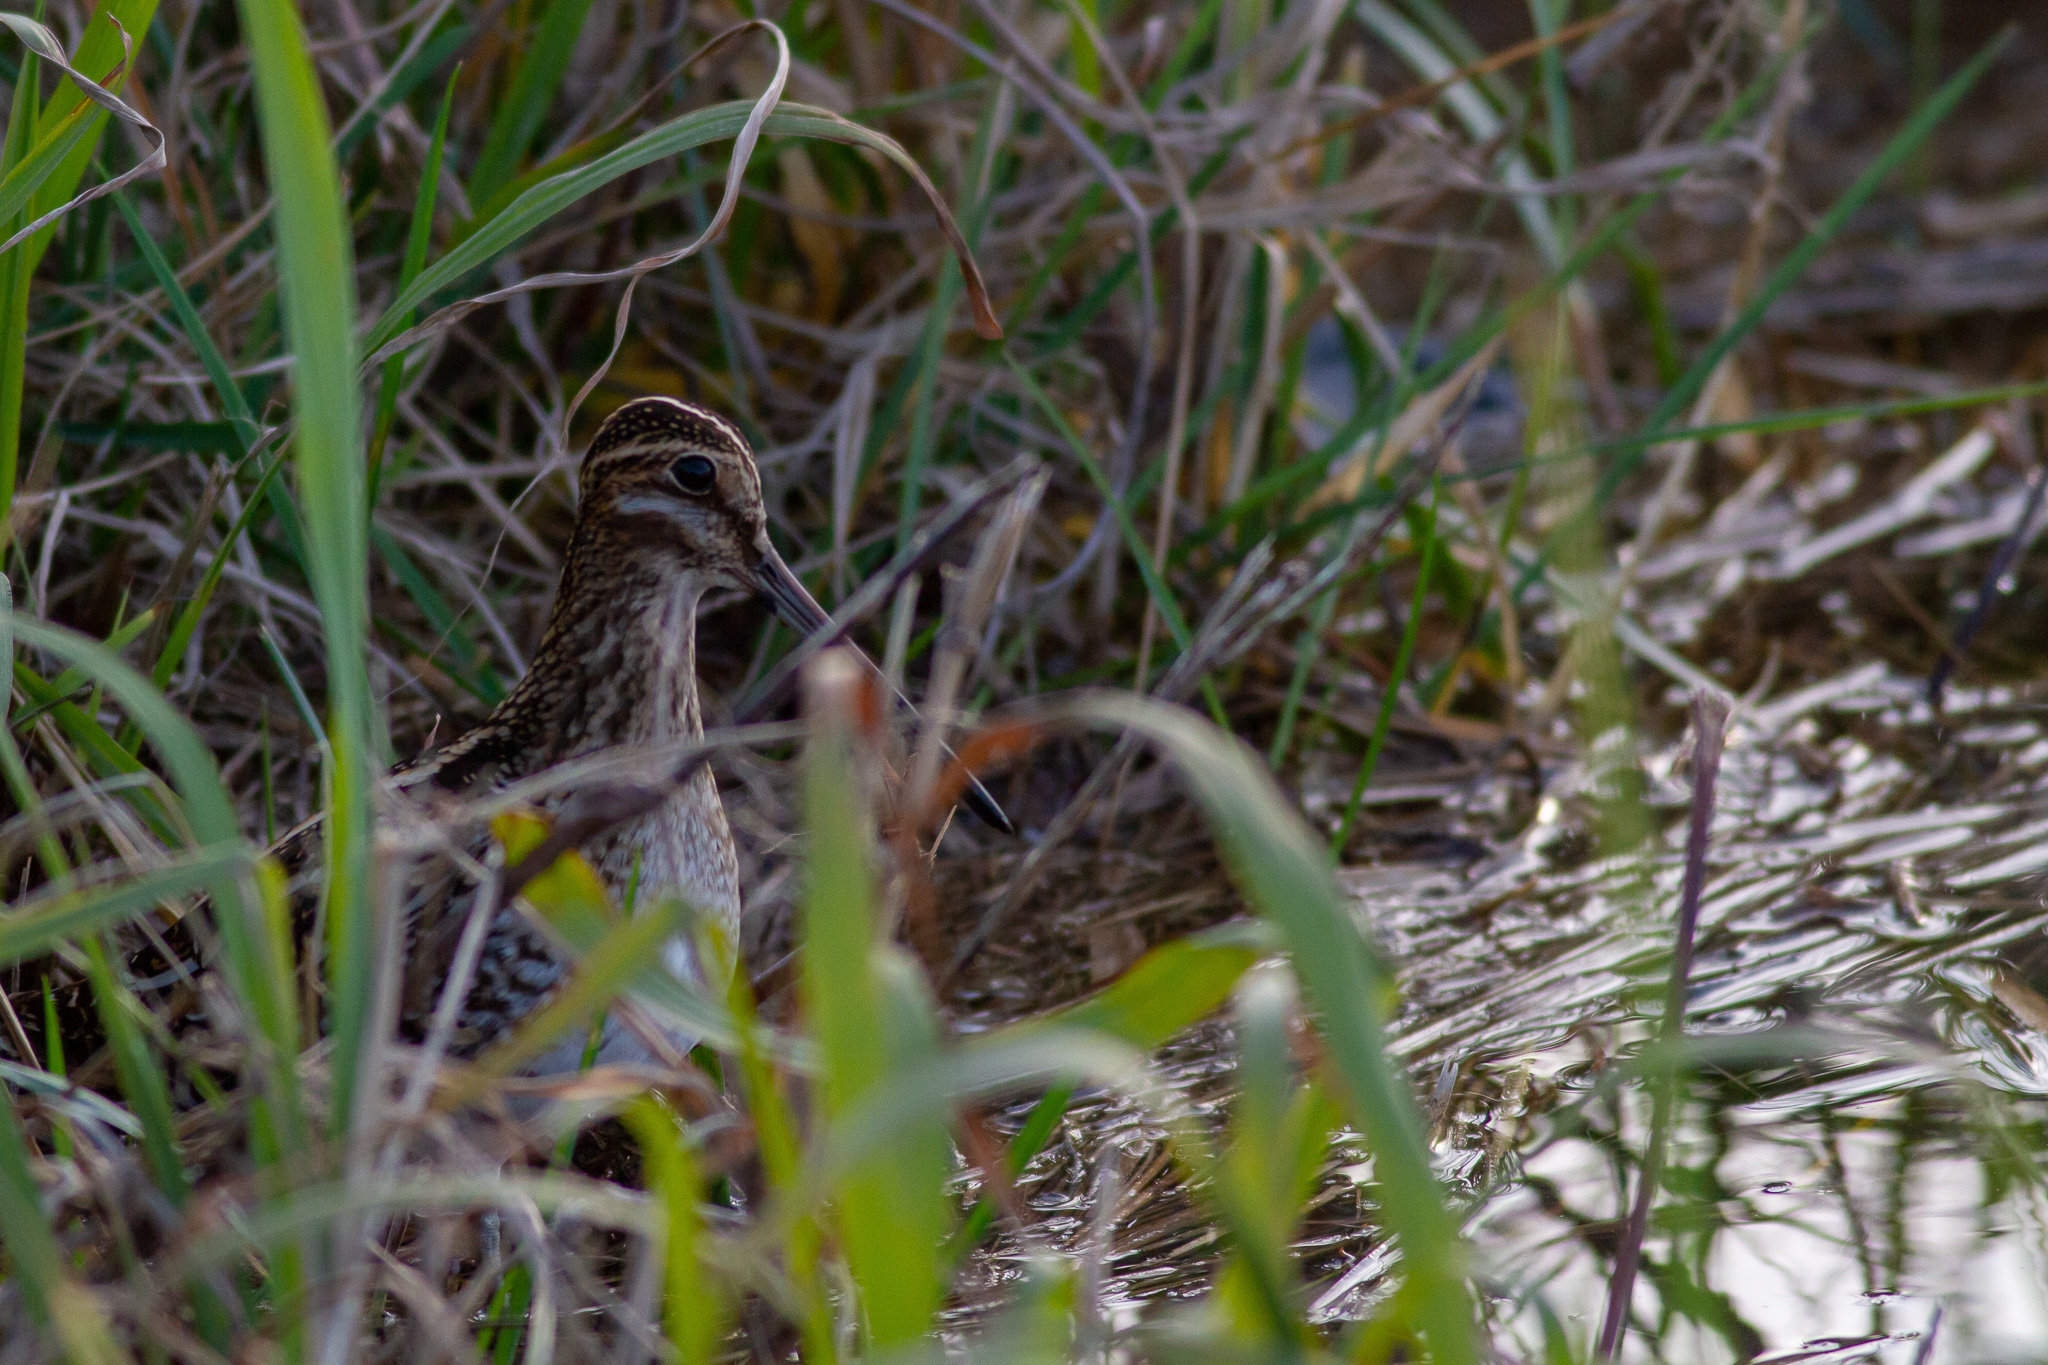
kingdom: Animalia
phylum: Chordata
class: Aves
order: Charadriiformes
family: Scolopacidae
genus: Gallinago
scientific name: Gallinago delicata
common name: Wilson's snipe
